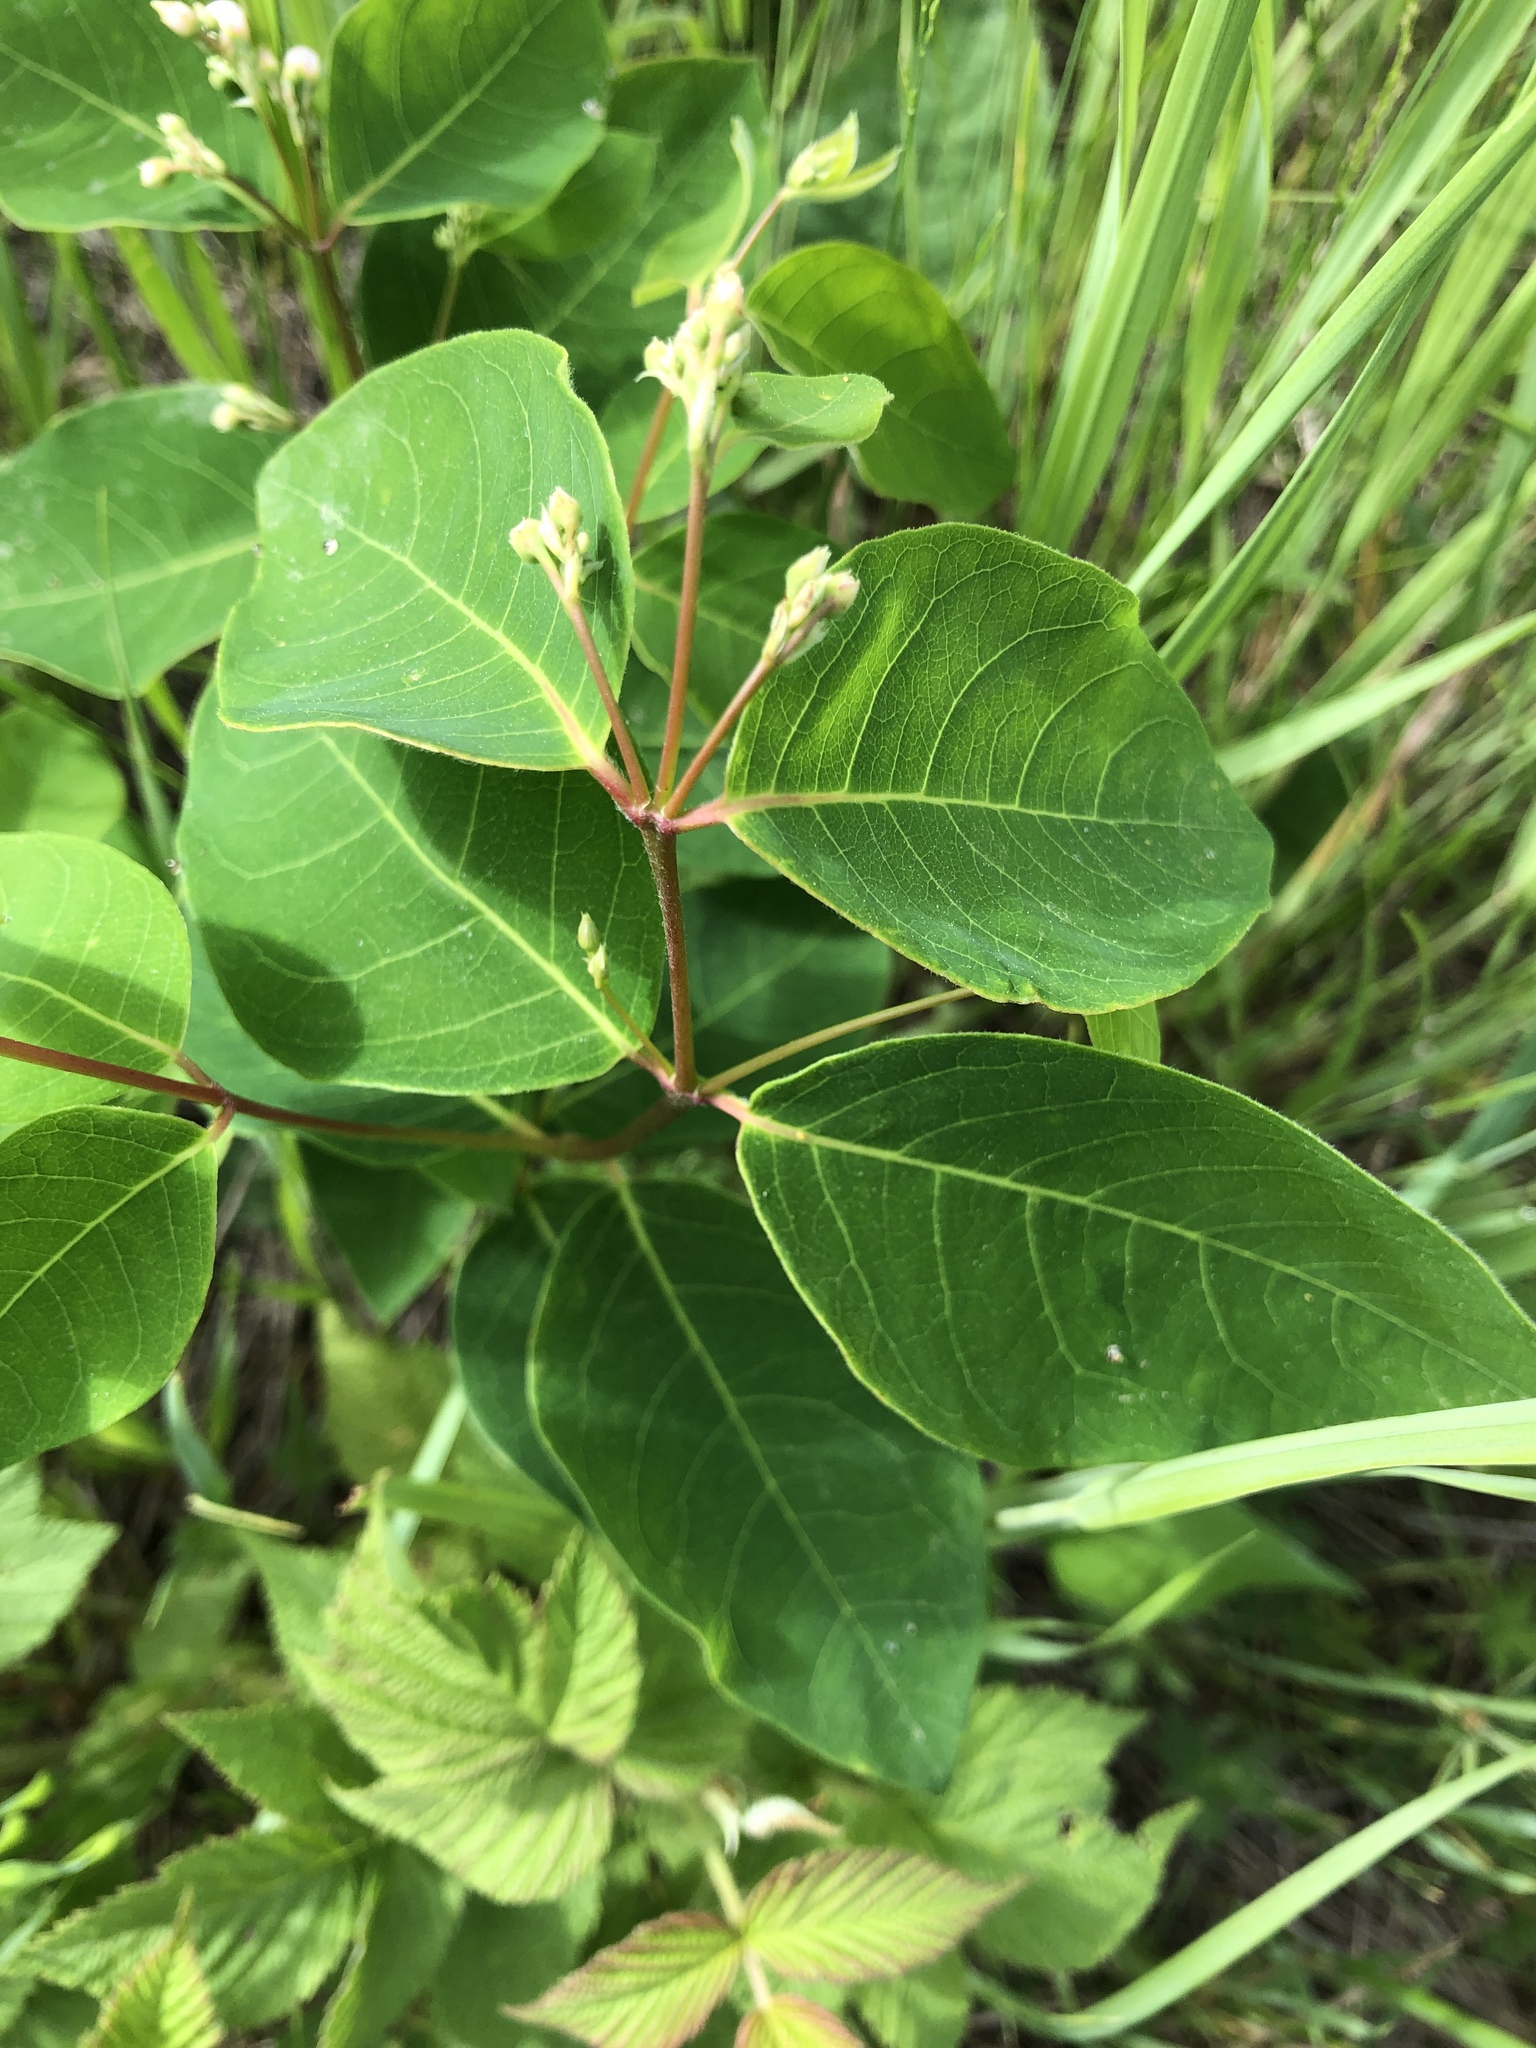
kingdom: Plantae
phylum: Tracheophyta
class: Magnoliopsida
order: Gentianales
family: Apocynaceae
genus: Apocynum
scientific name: Apocynum androsaemifolium
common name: Spreading dogbane
